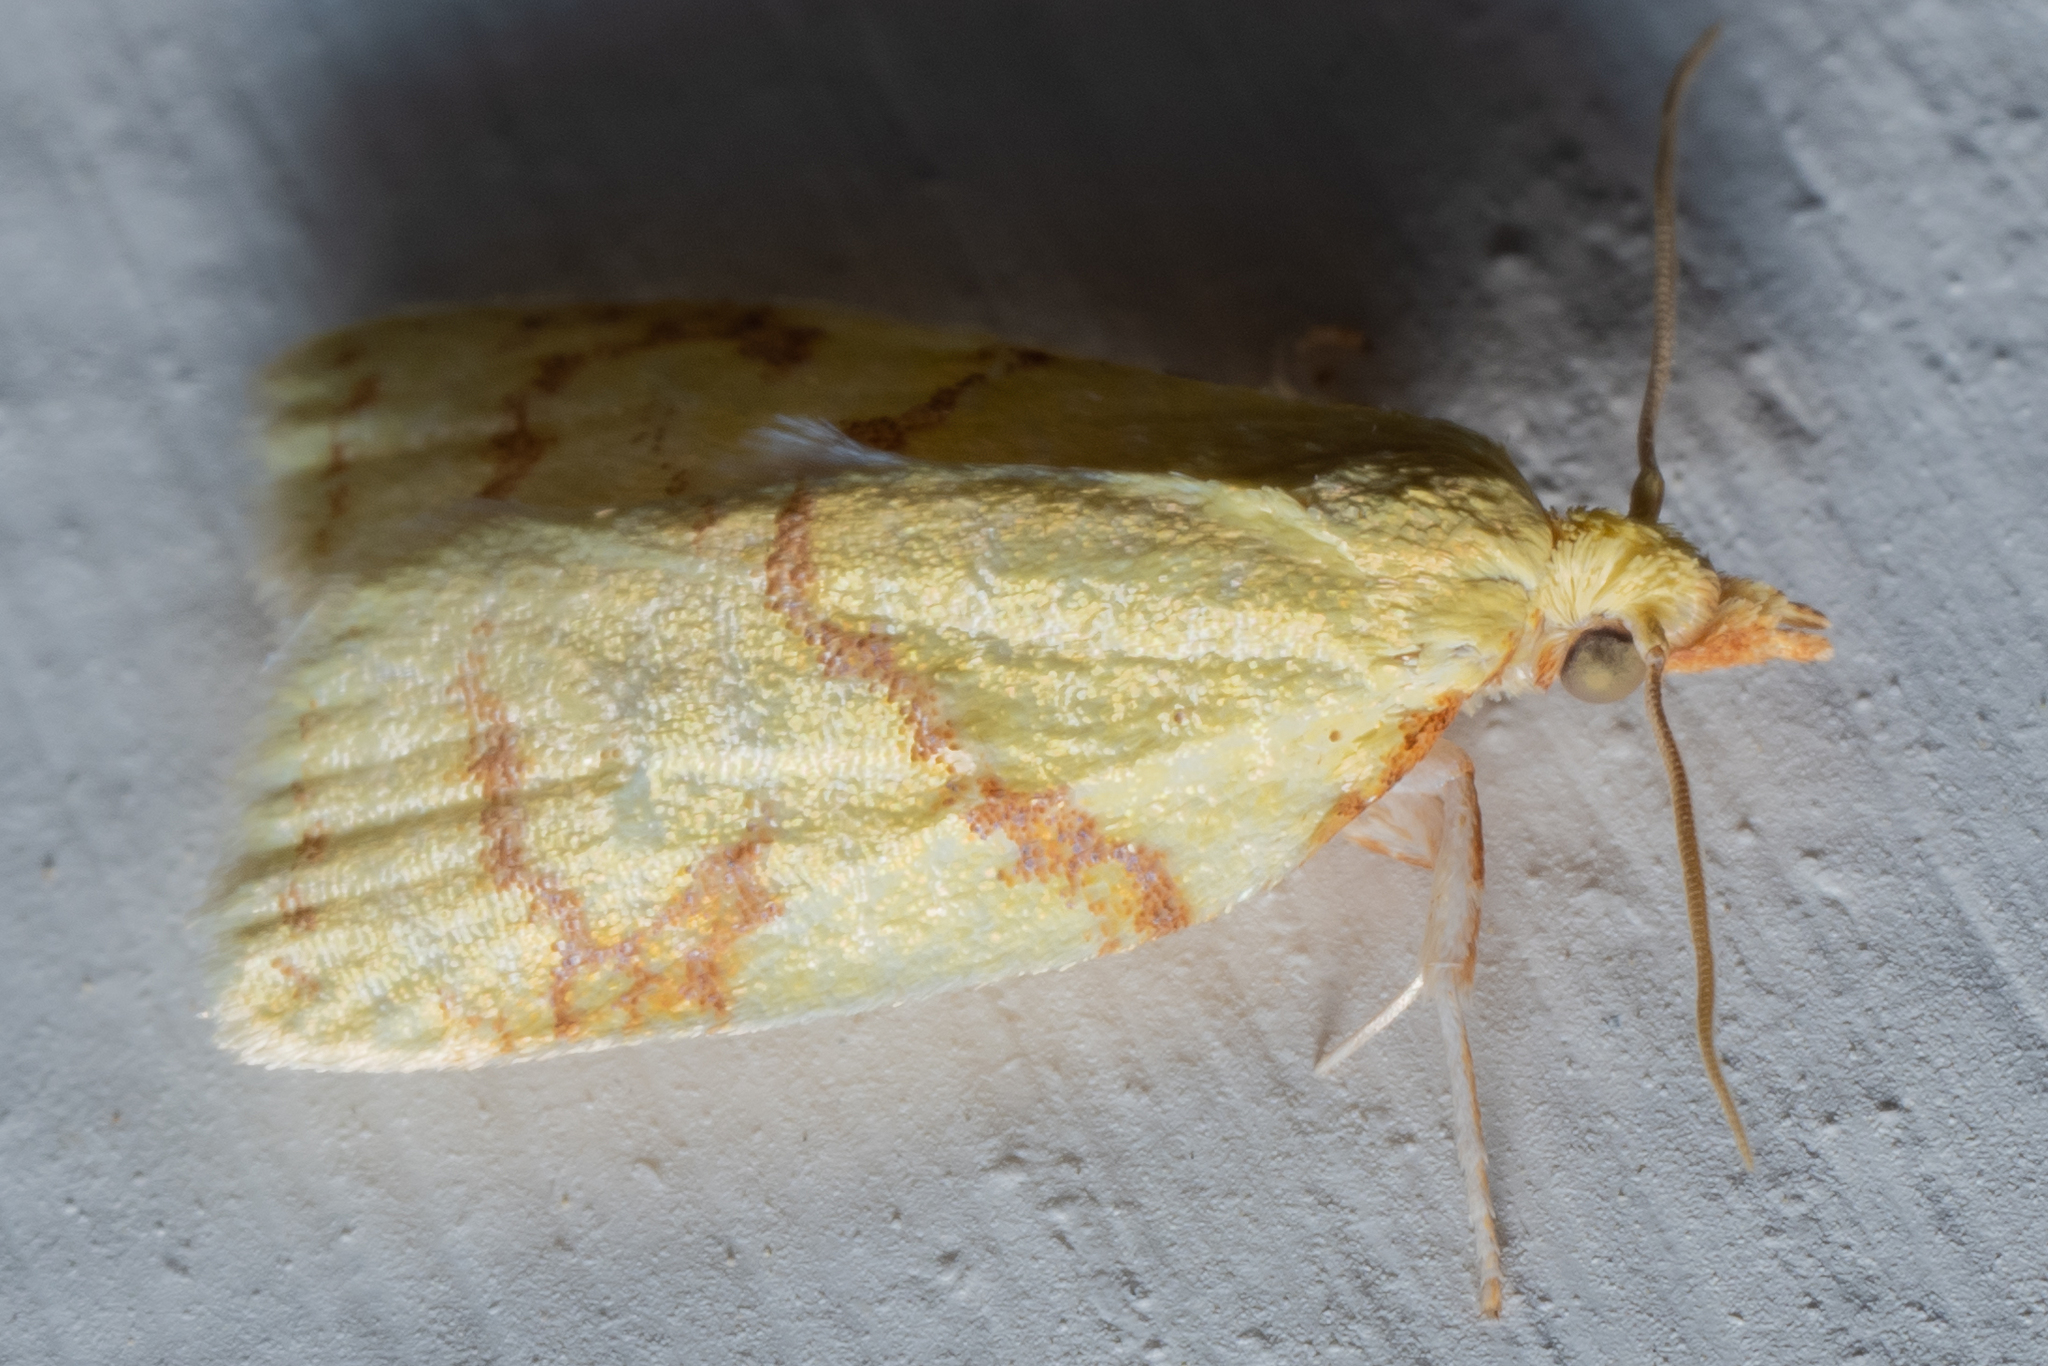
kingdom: Animalia
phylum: Arthropoda
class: Insecta
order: Lepidoptera
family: Tortricidae
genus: Cenopis
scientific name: Cenopis pettitana
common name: Maple-basswood leafroller moth
